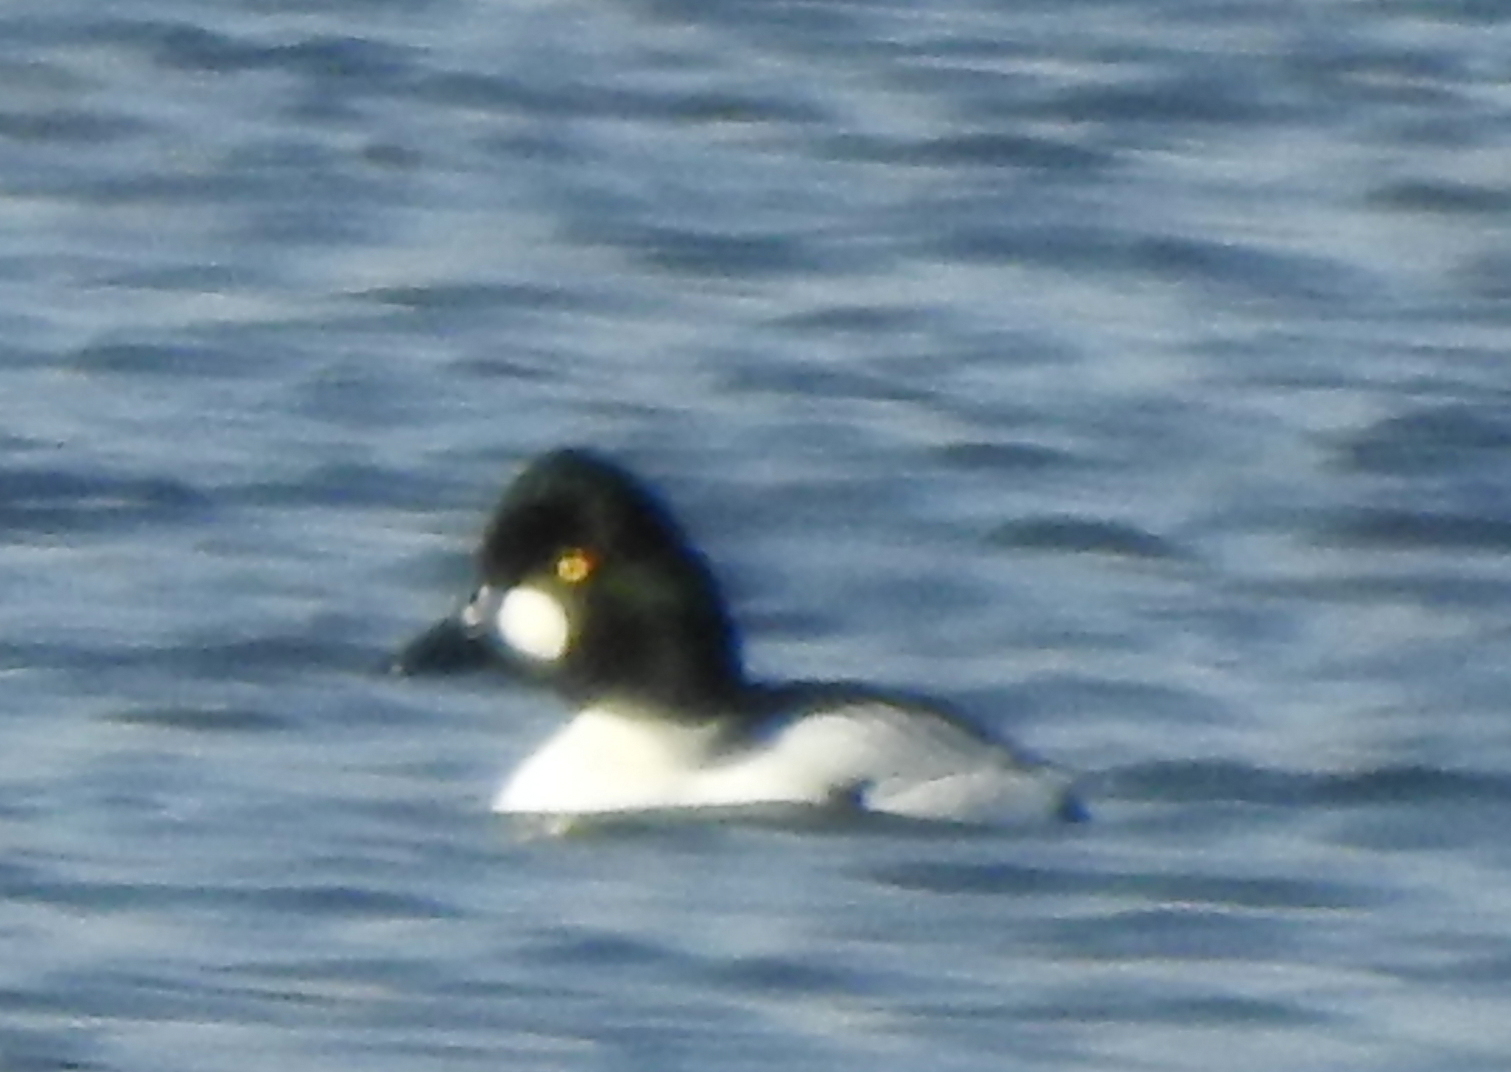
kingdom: Animalia
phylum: Chordata
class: Aves
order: Anseriformes
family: Anatidae
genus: Bucephala
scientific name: Bucephala clangula
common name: Common goldeneye
